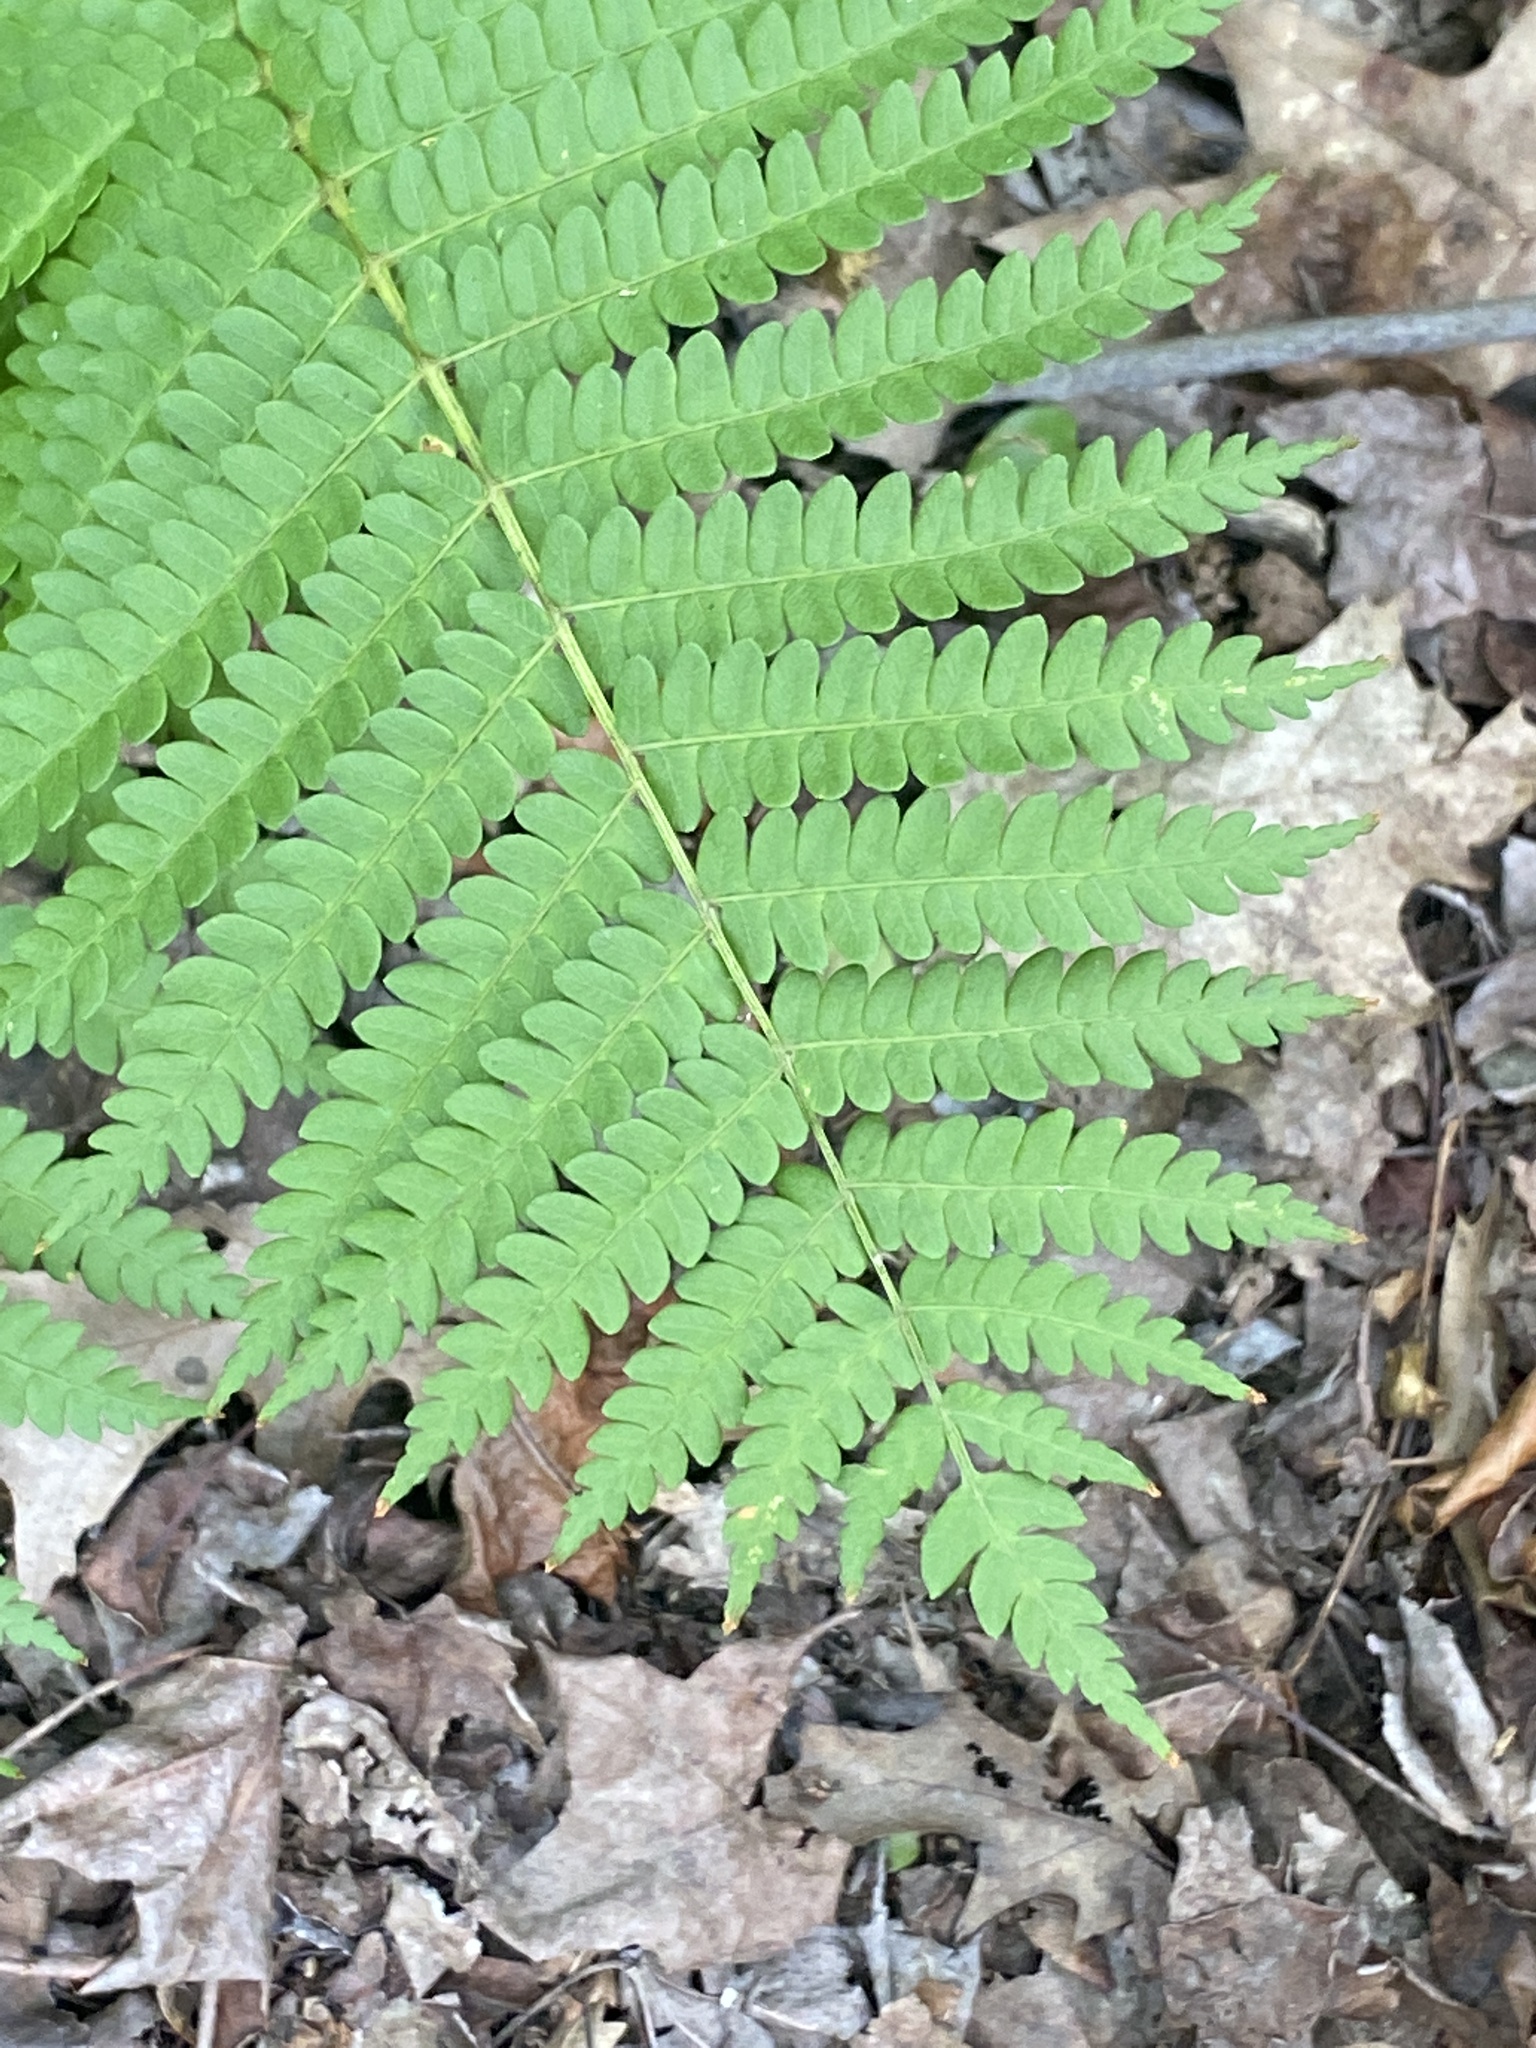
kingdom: Plantae
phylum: Tracheophyta
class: Polypodiopsida
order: Osmundales
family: Osmundaceae
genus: Osmundastrum
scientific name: Osmundastrum cinnamomeum
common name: Cinnamon fern
